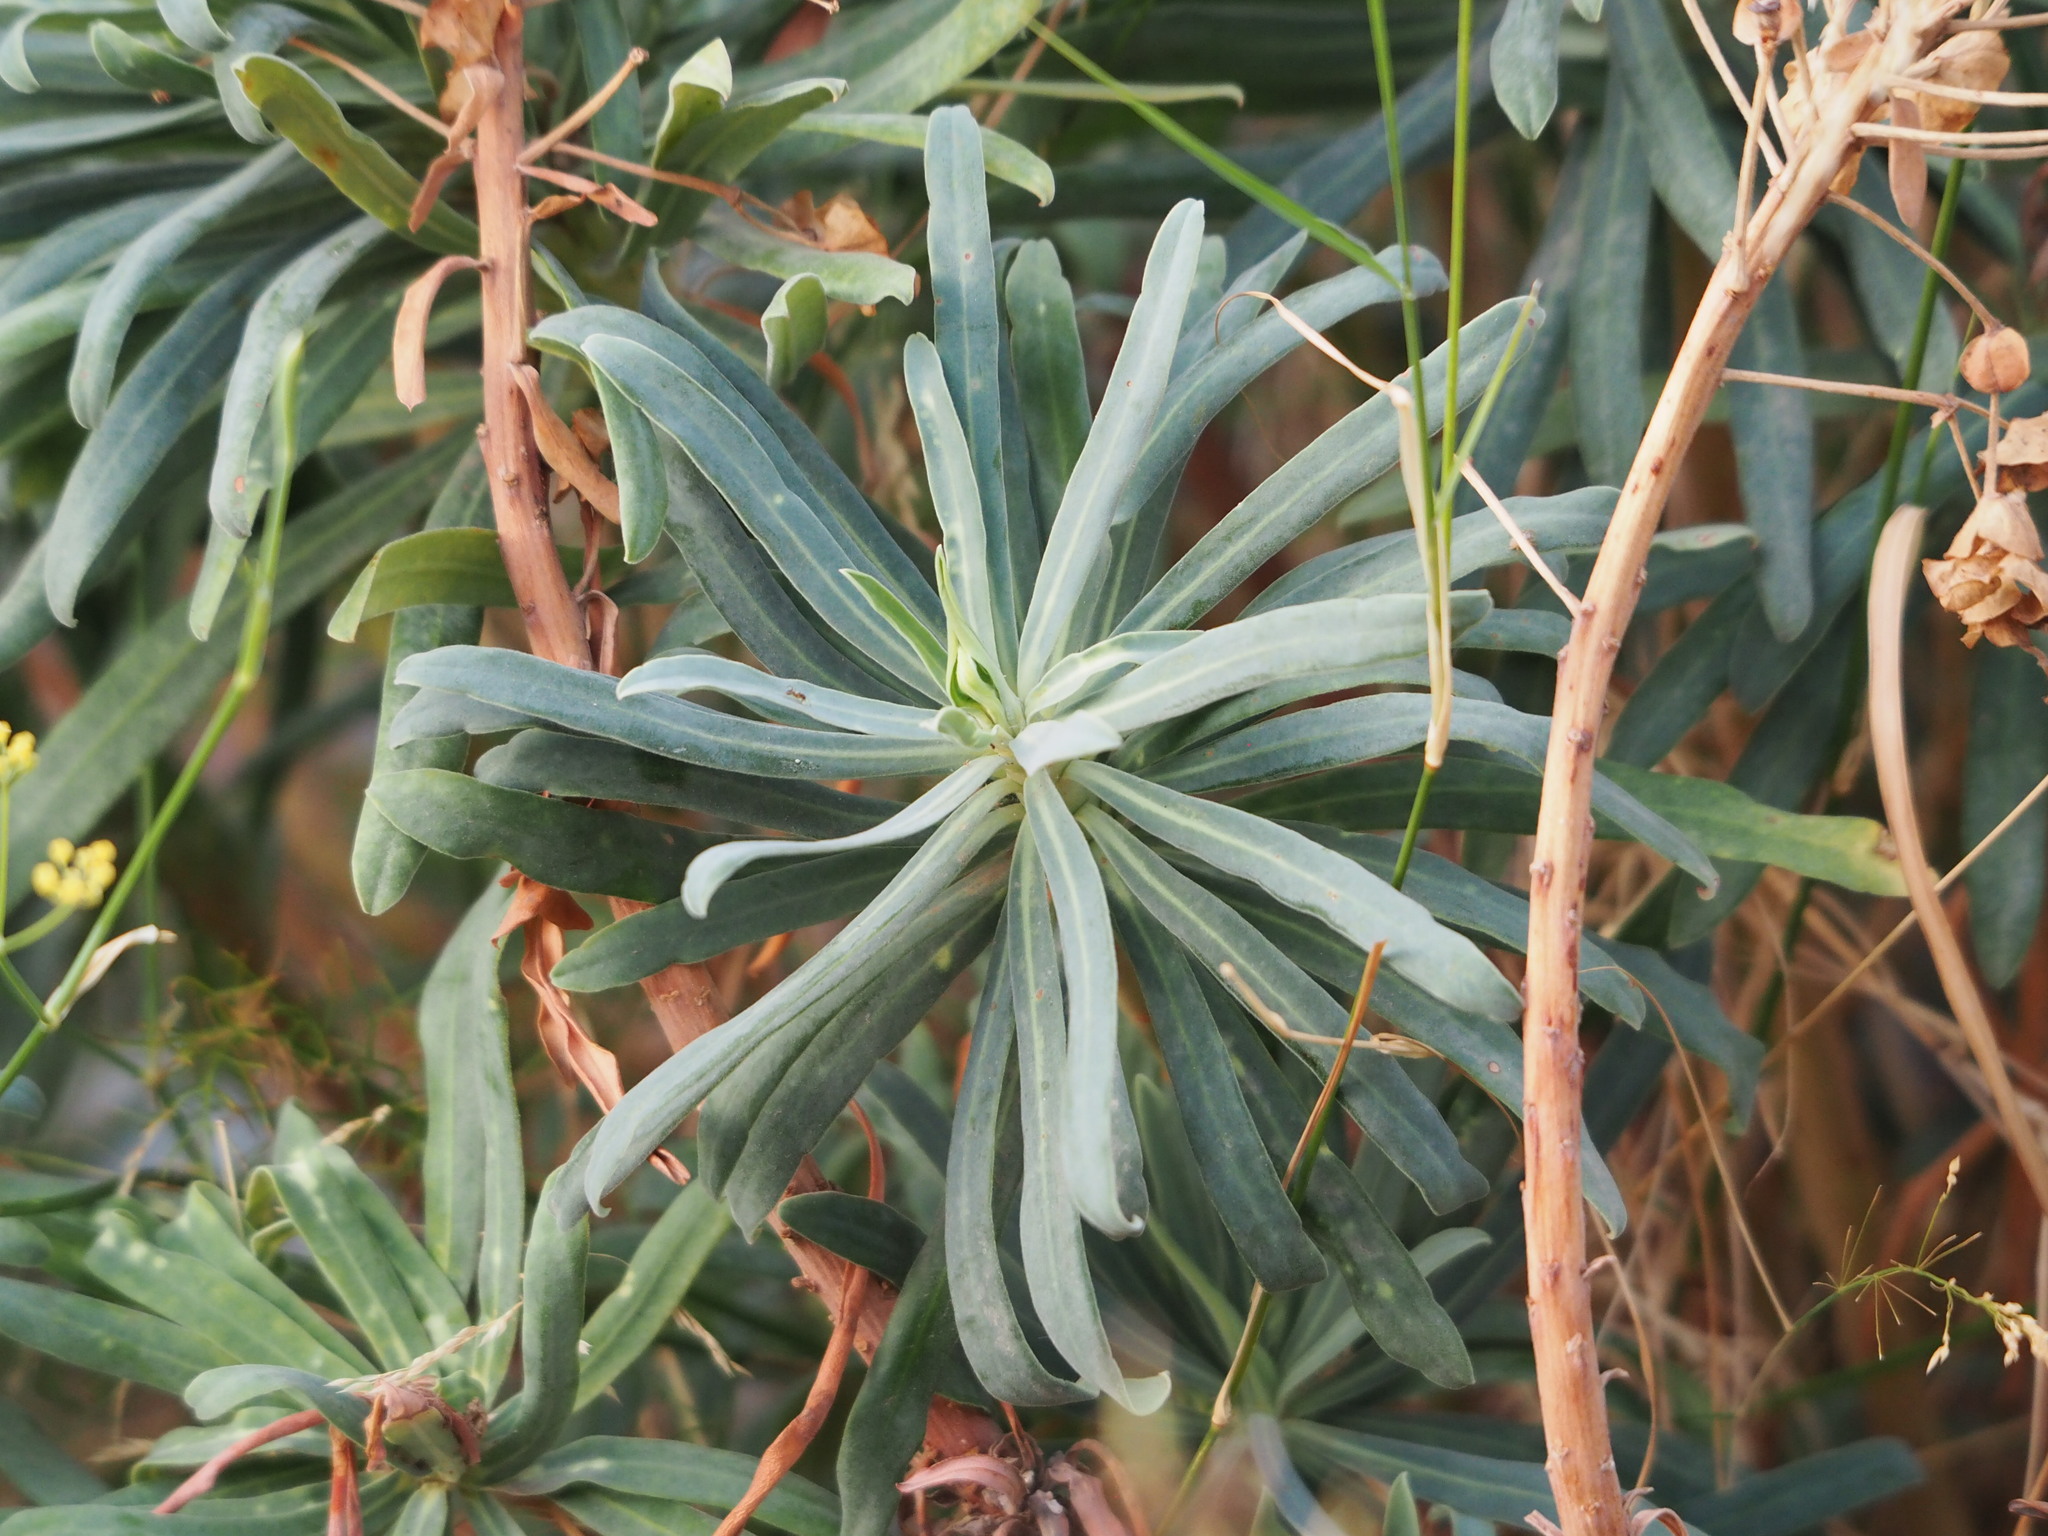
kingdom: Plantae
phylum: Tracheophyta
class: Magnoliopsida
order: Malpighiales
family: Euphorbiaceae
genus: Euphorbia
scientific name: Euphorbia characias
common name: Mediterranean spurge
